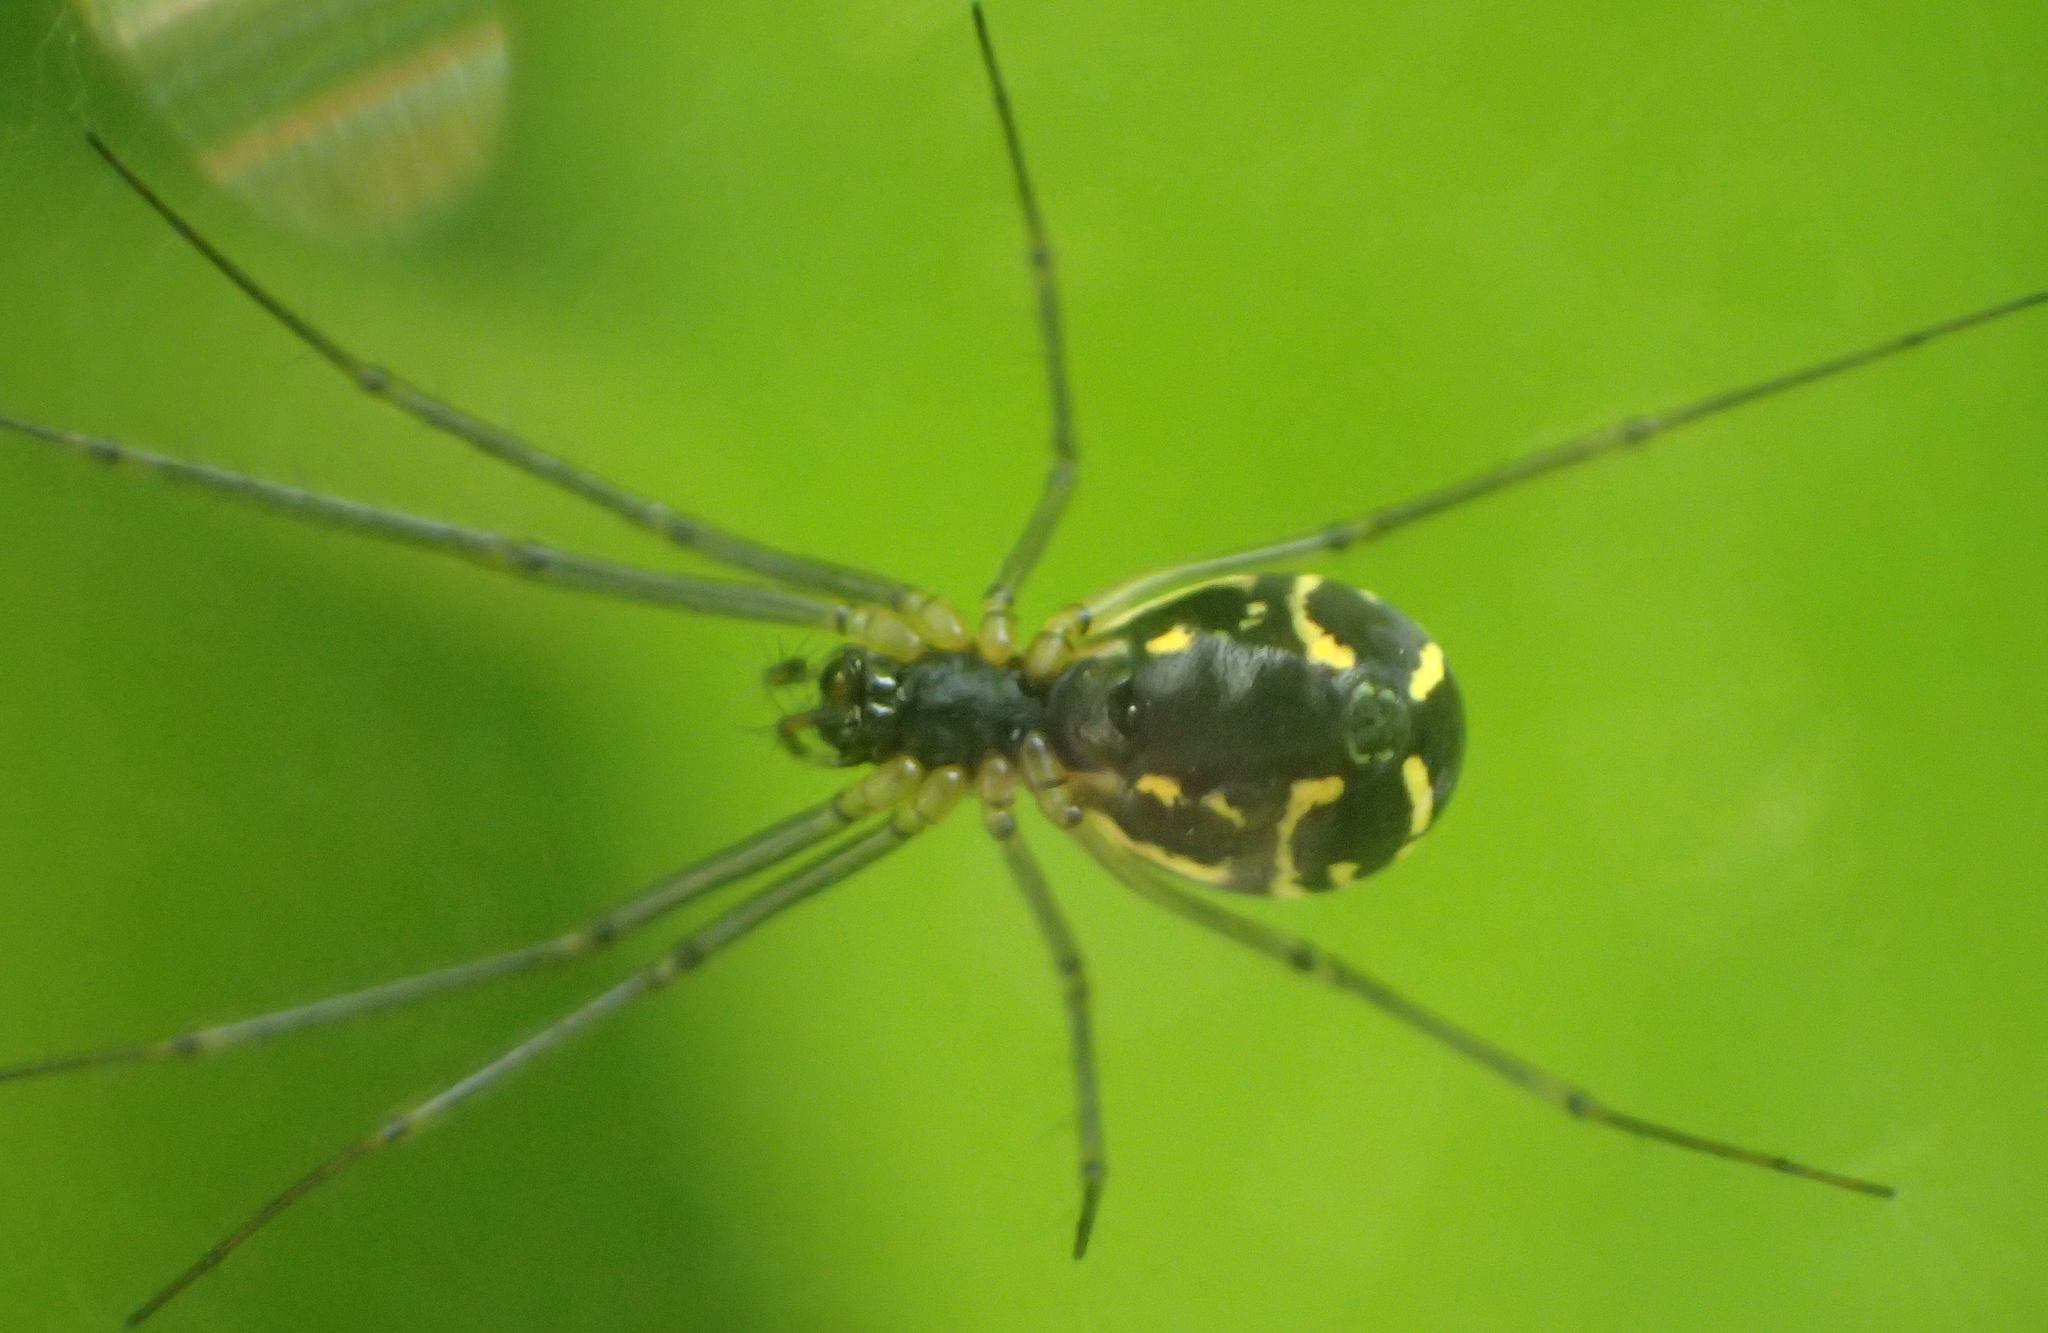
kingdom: Animalia
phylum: Arthropoda
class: Arachnida
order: Araneae
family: Linyphiidae
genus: Neriene
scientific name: Neriene radiata
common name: Filmy dome spider
